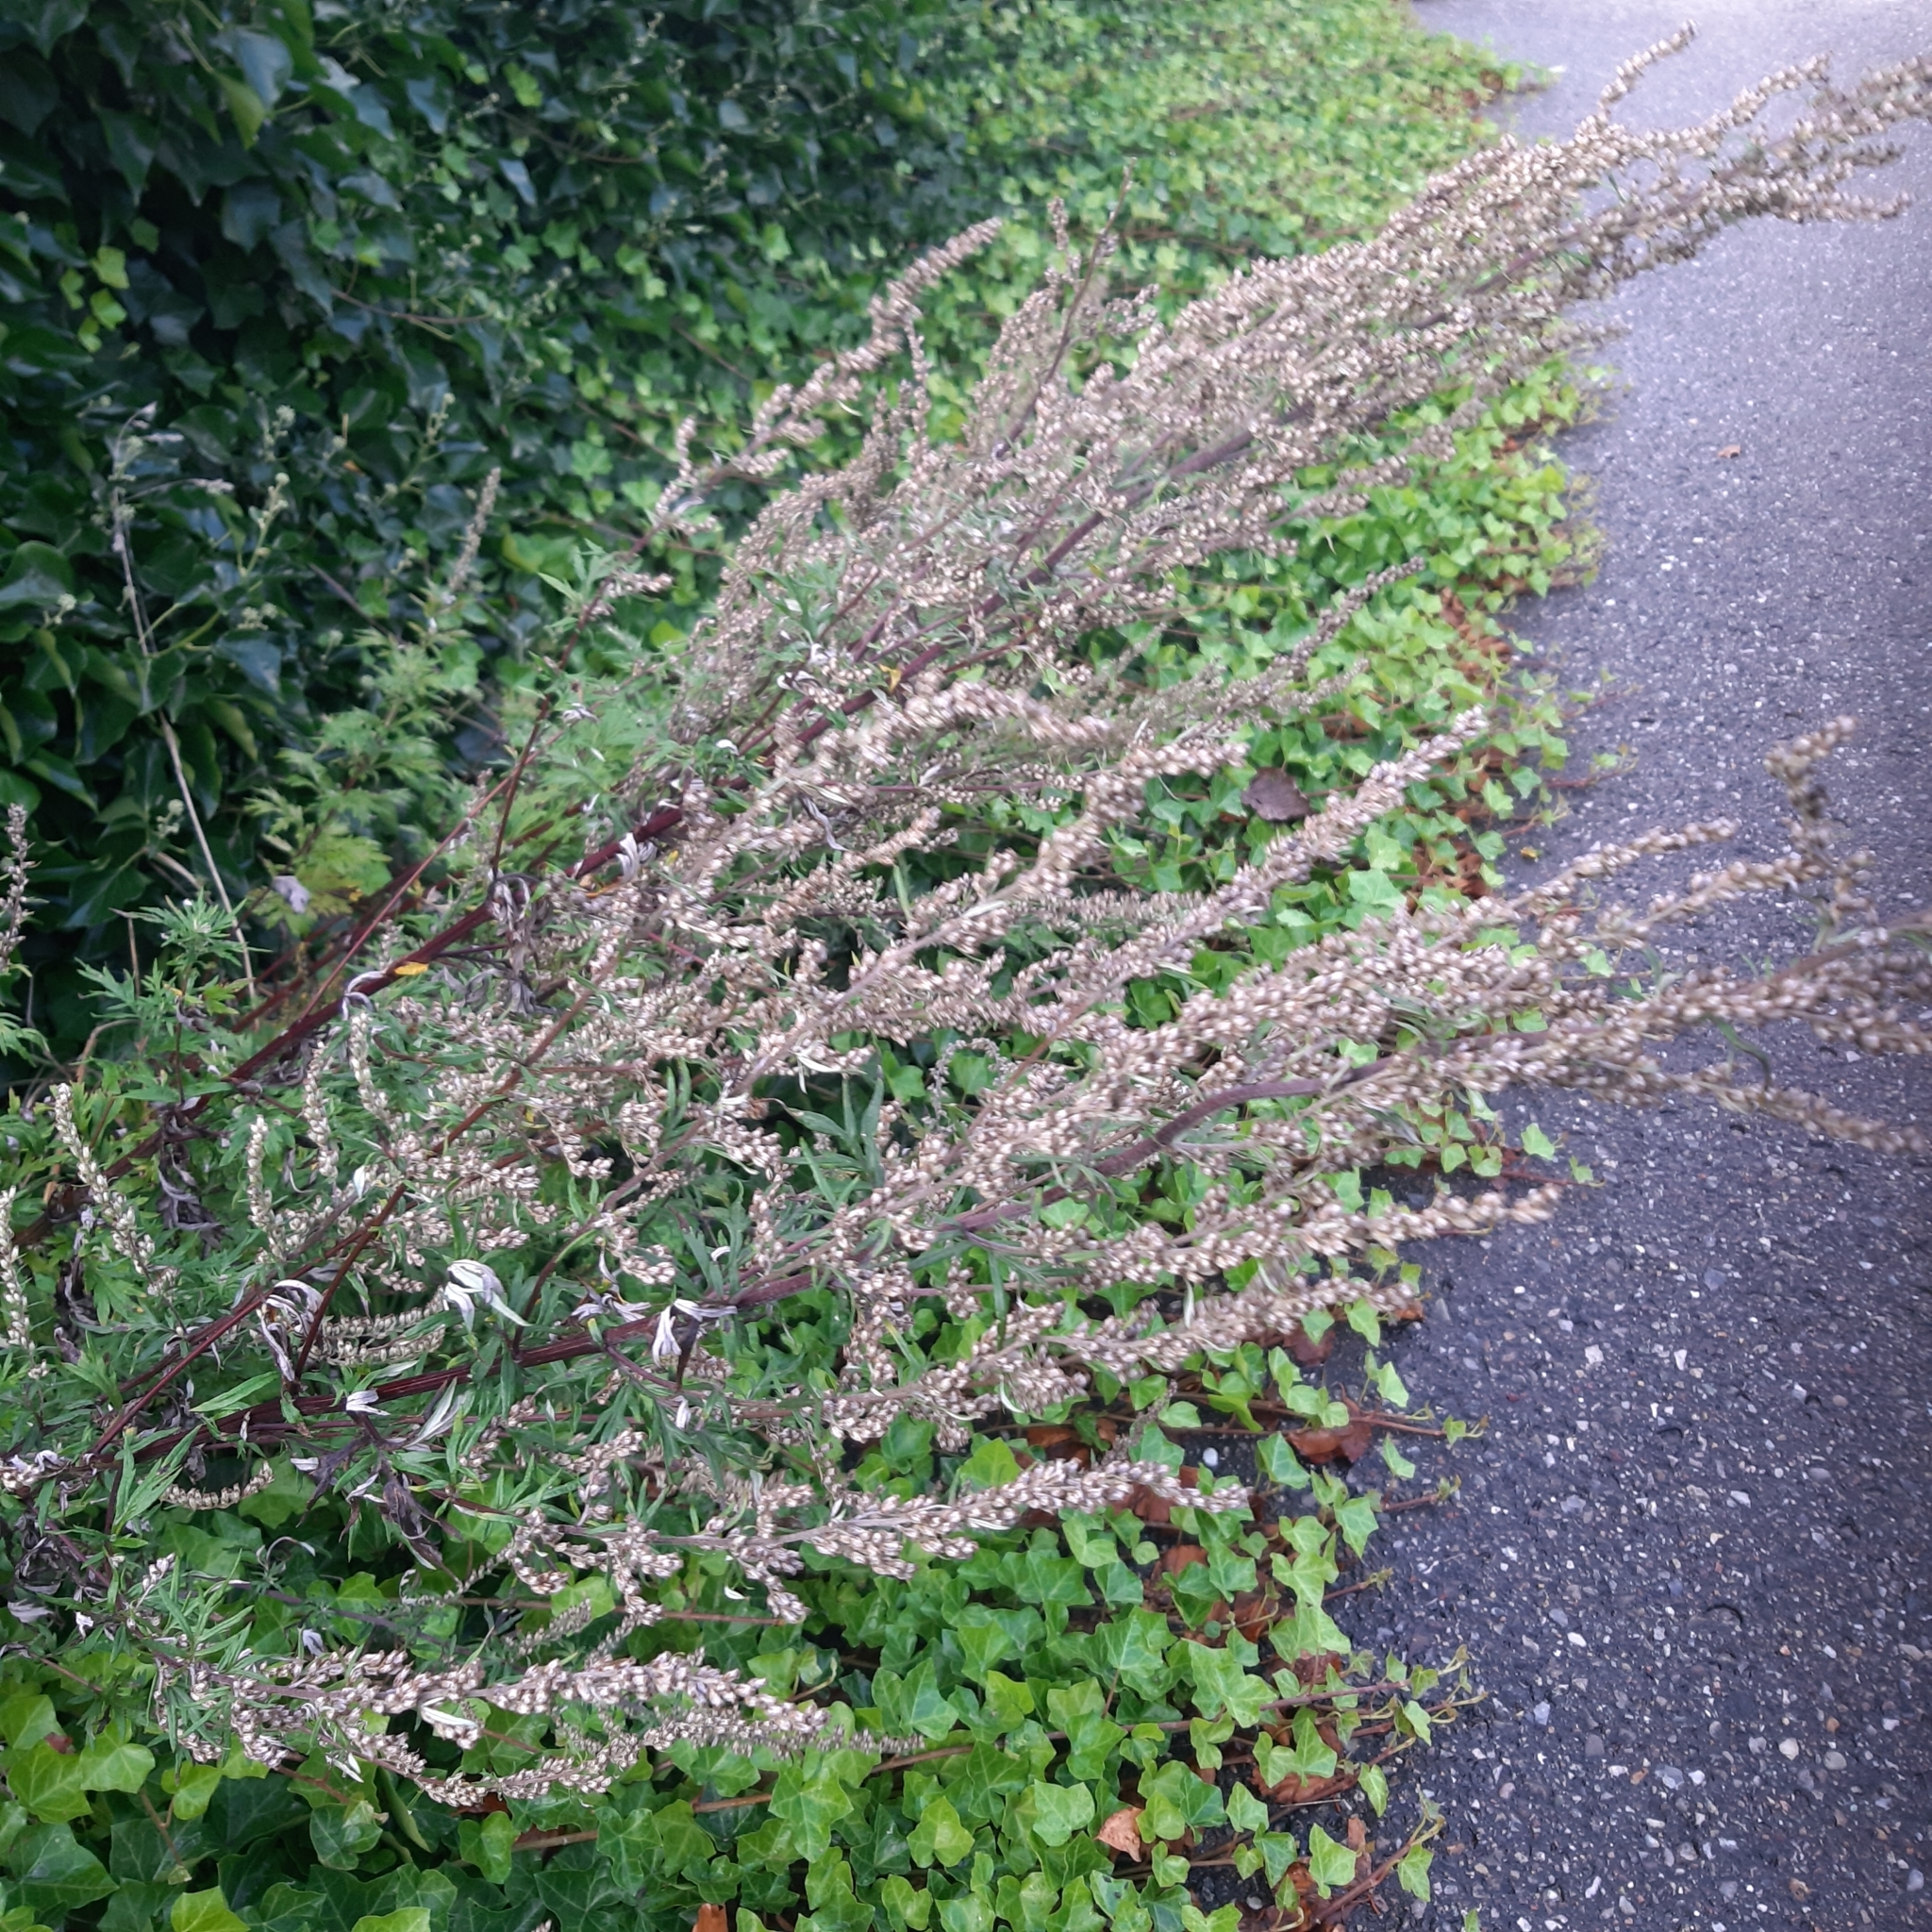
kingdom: Plantae
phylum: Tracheophyta
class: Magnoliopsida
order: Asterales
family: Asteraceae
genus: Artemisia
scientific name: Artemisia vulgaris
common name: Mugwort
